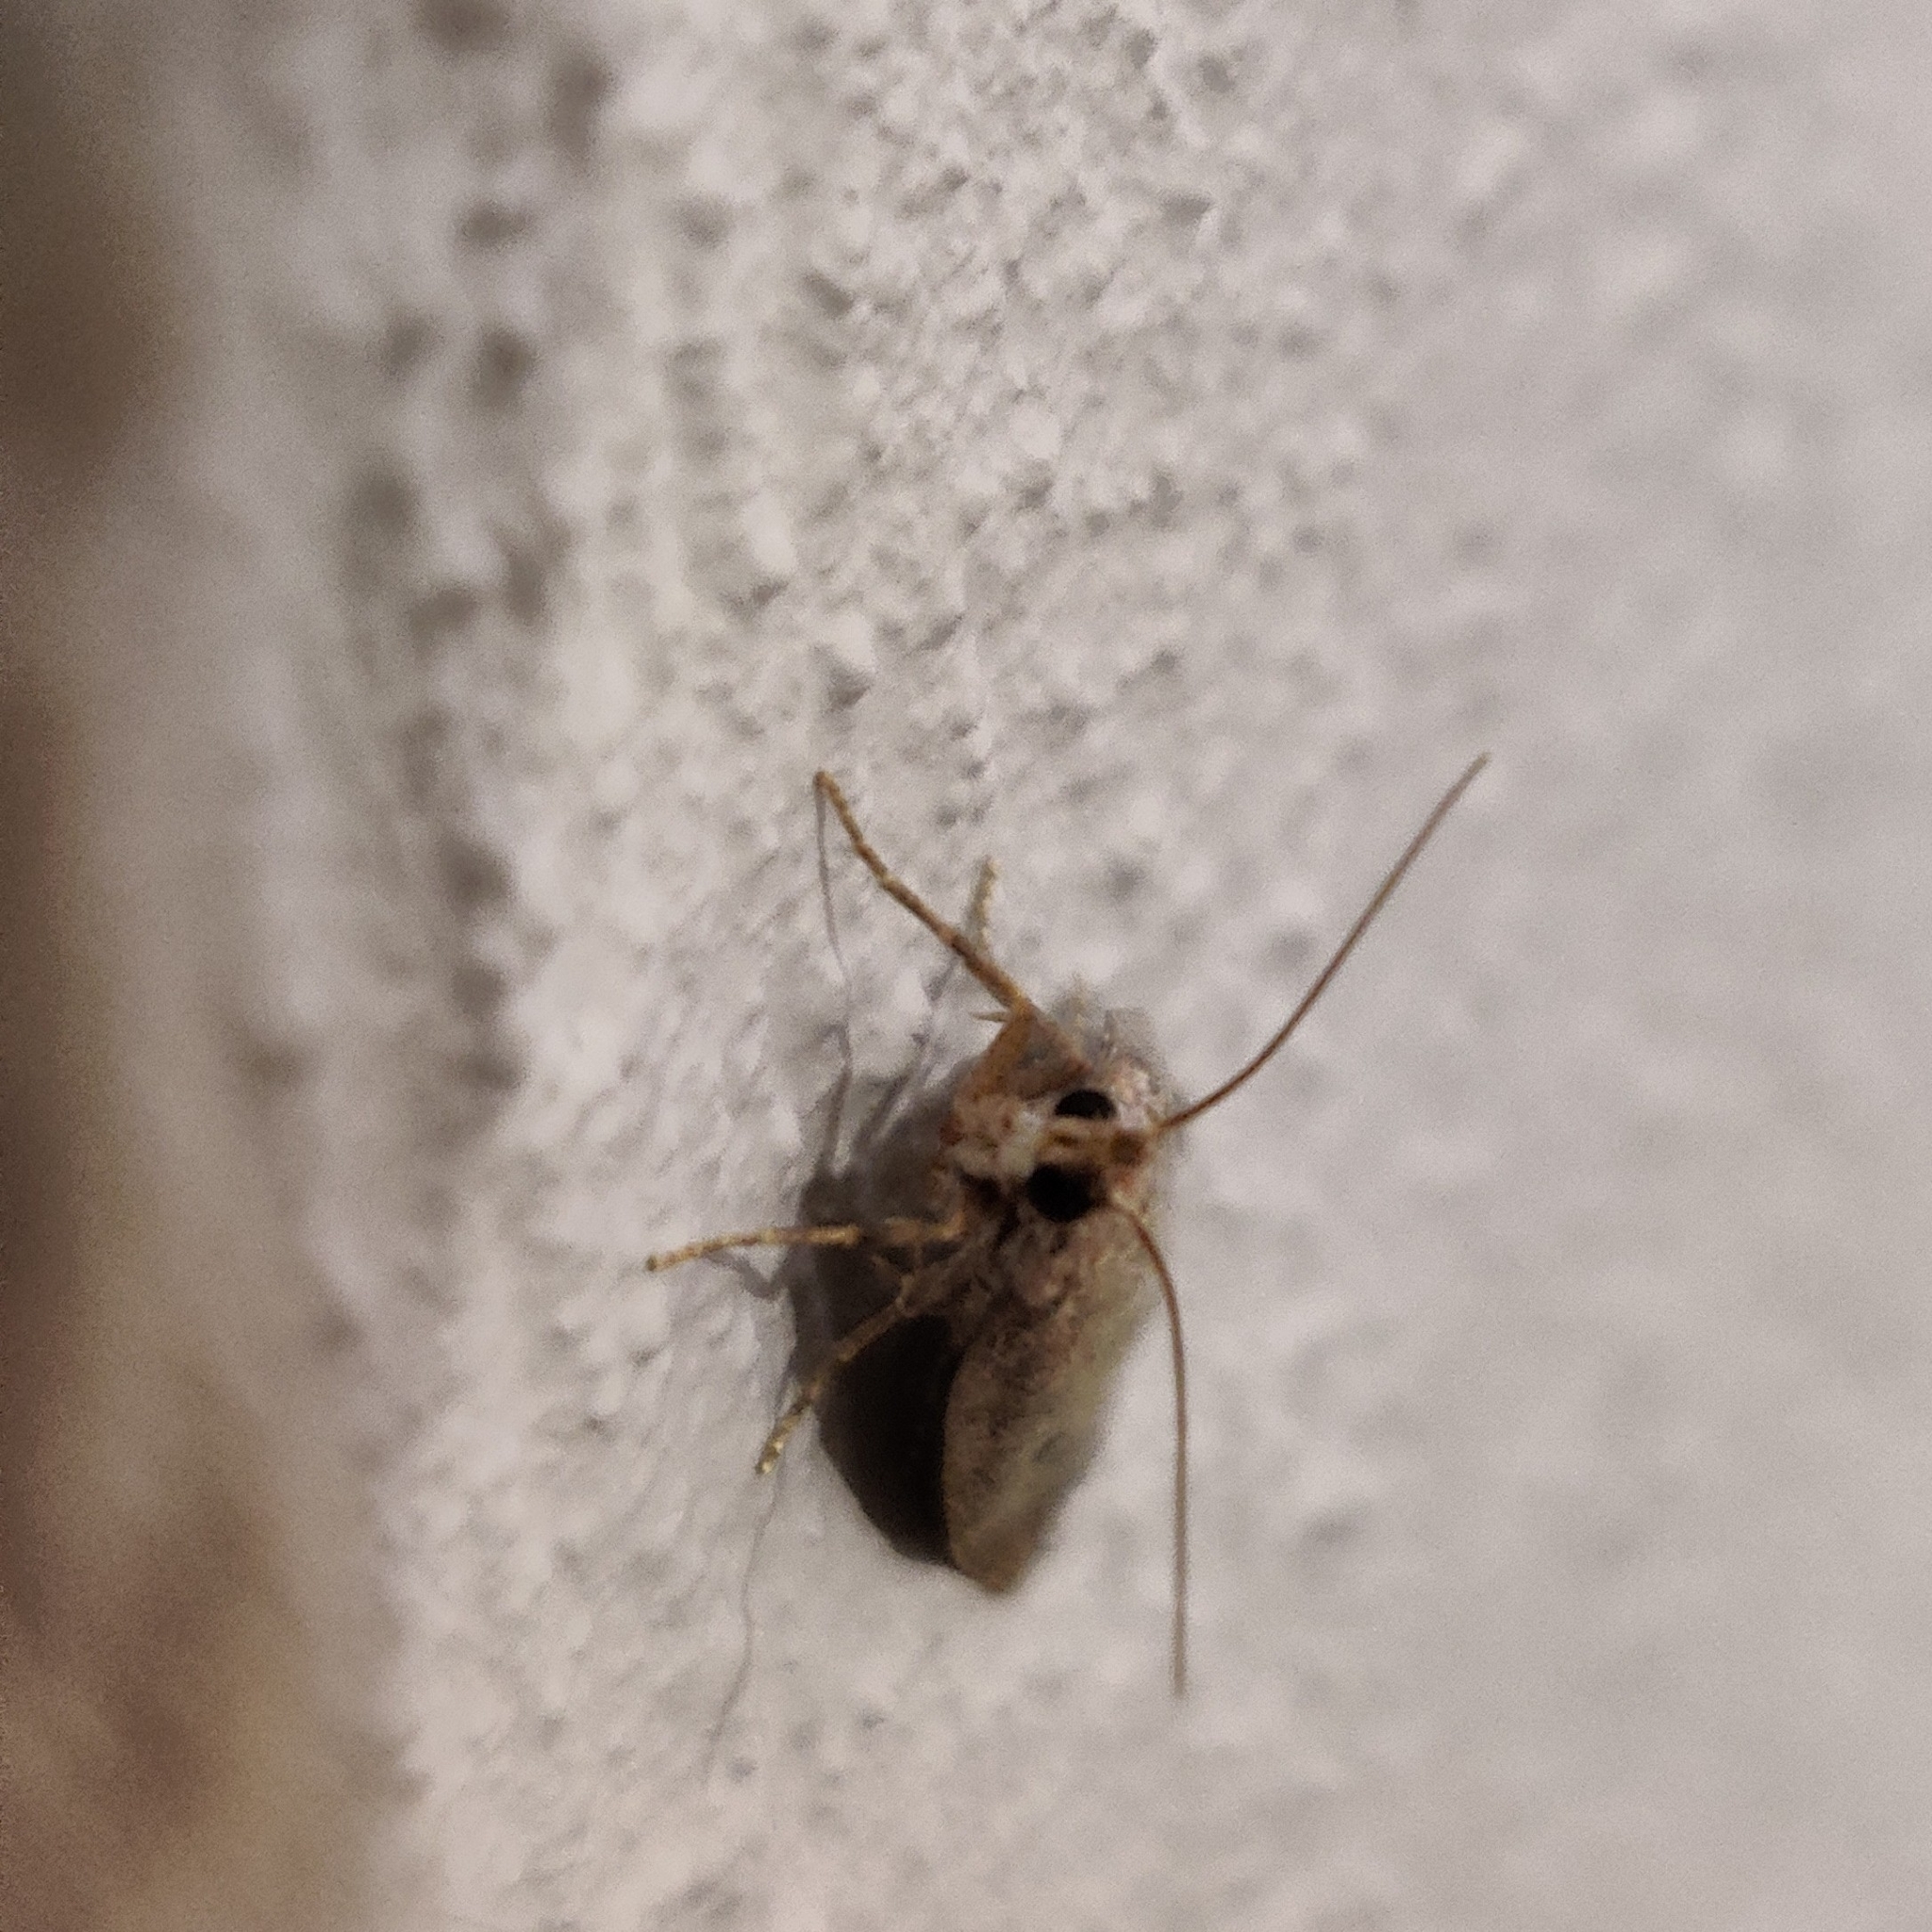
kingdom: Animalia
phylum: Arthropoda
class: Insecta
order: Lepidoptera
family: Pyralidae
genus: Aphomia
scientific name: Aphomia sociella
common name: Bee moth
